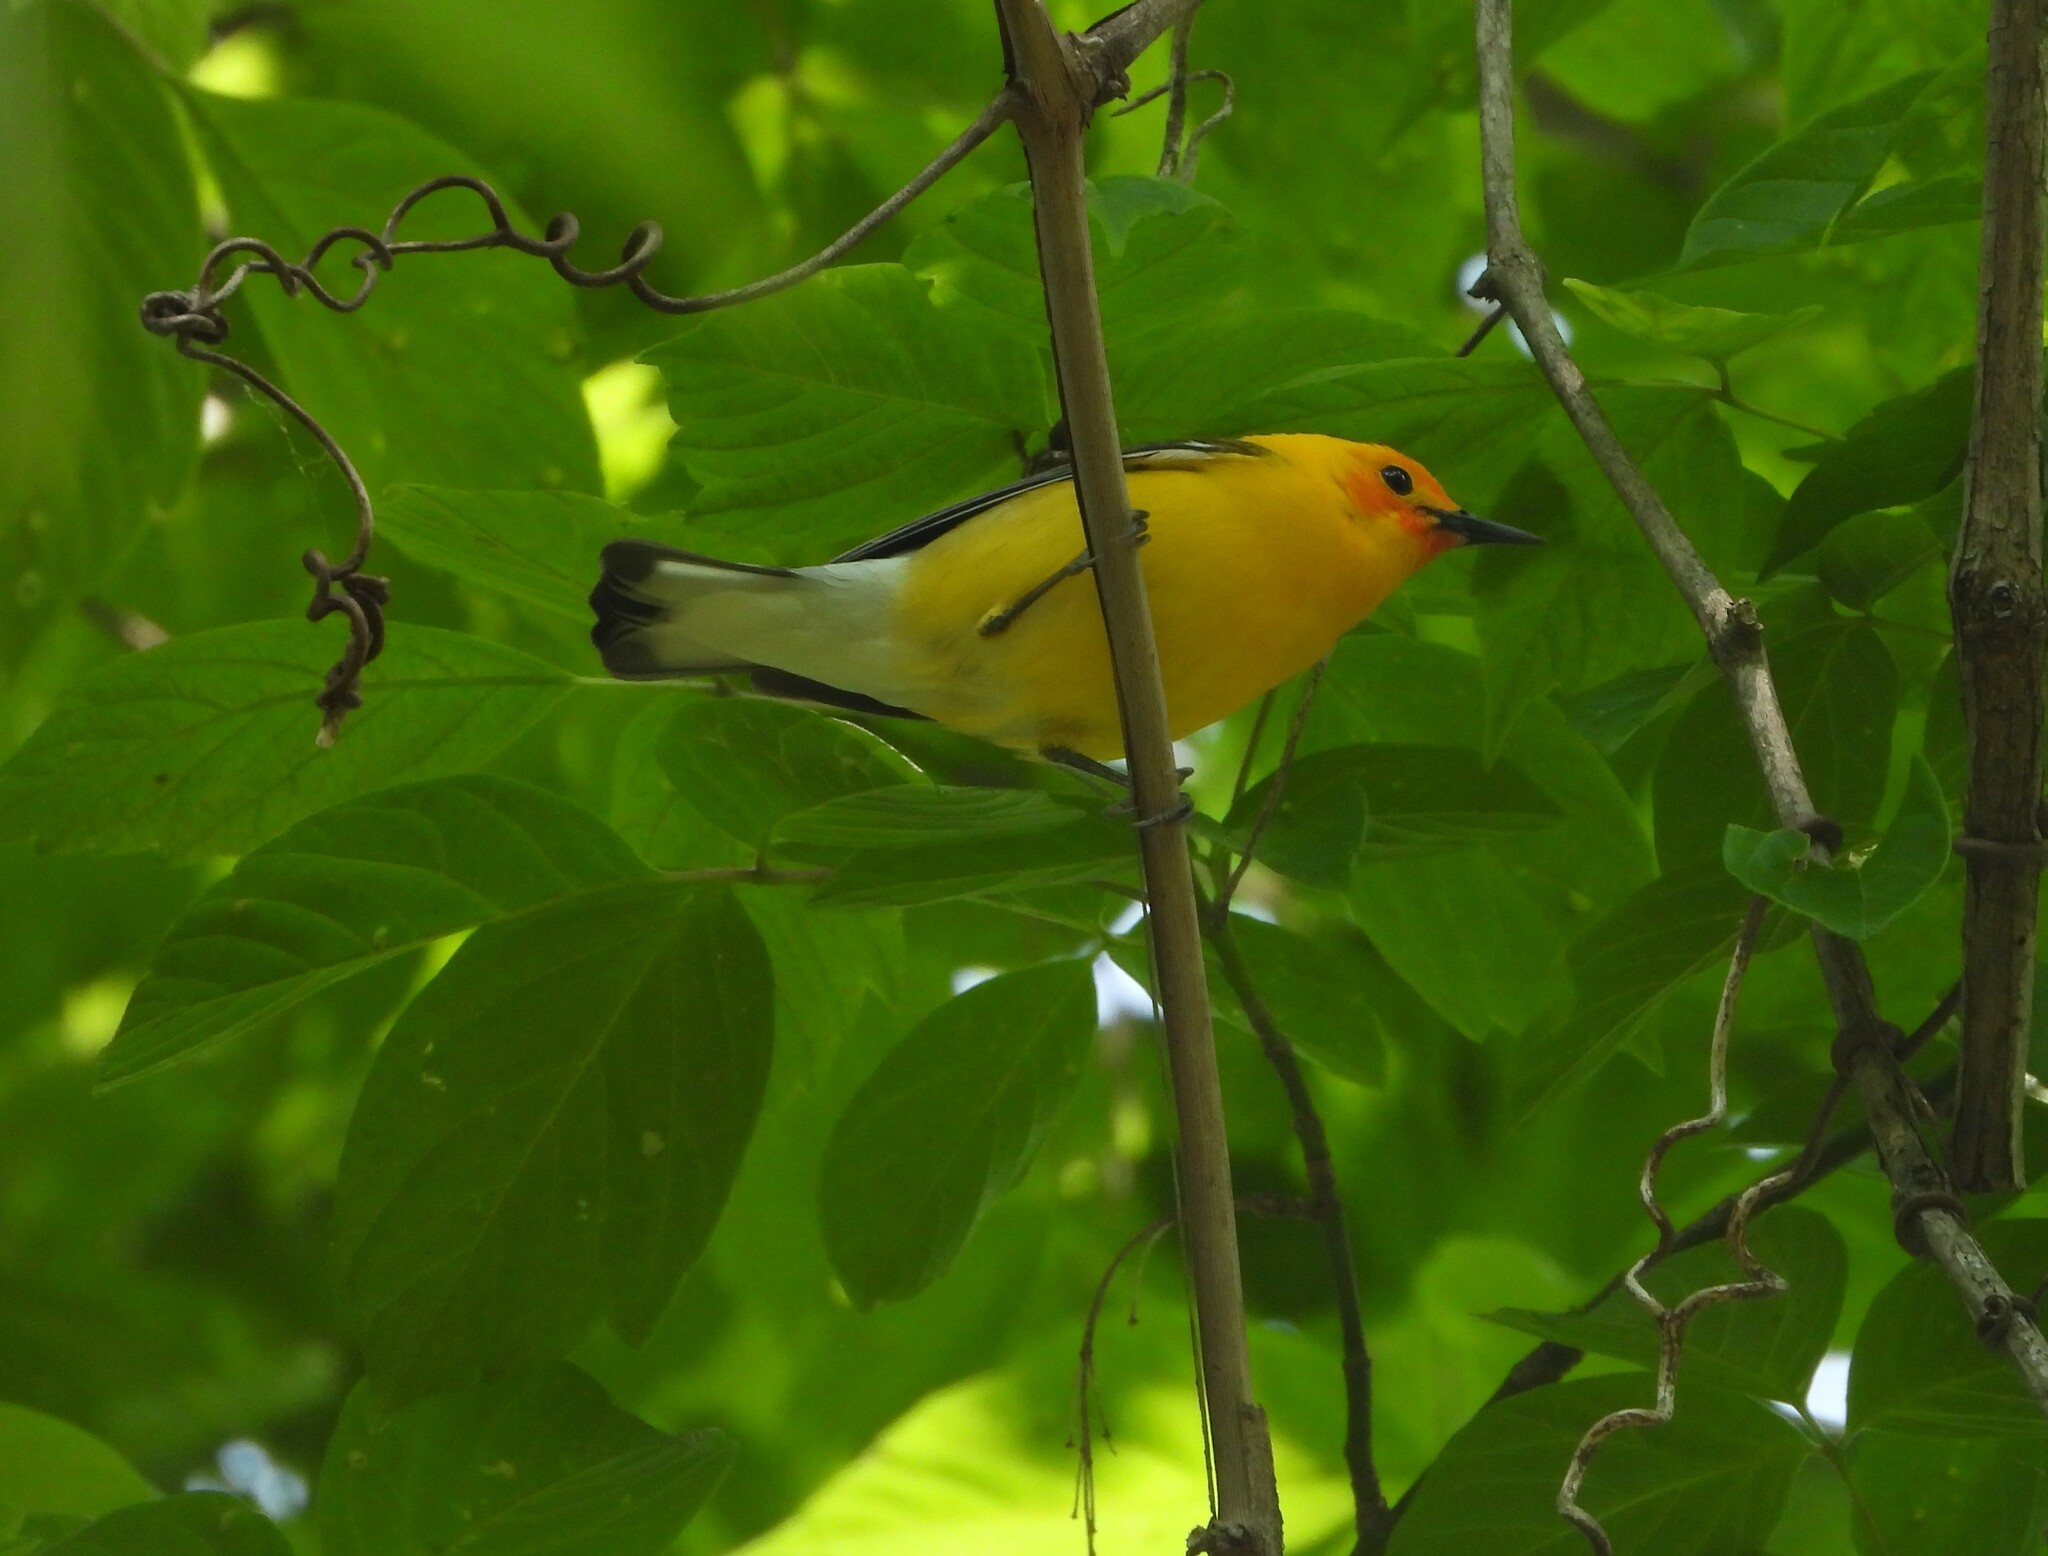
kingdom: Animalia
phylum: Chordata
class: Aves
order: Passeriformes
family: Parulidae
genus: Protonotaria
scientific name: Protonotaria citrea
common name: Prothonotary warbler
